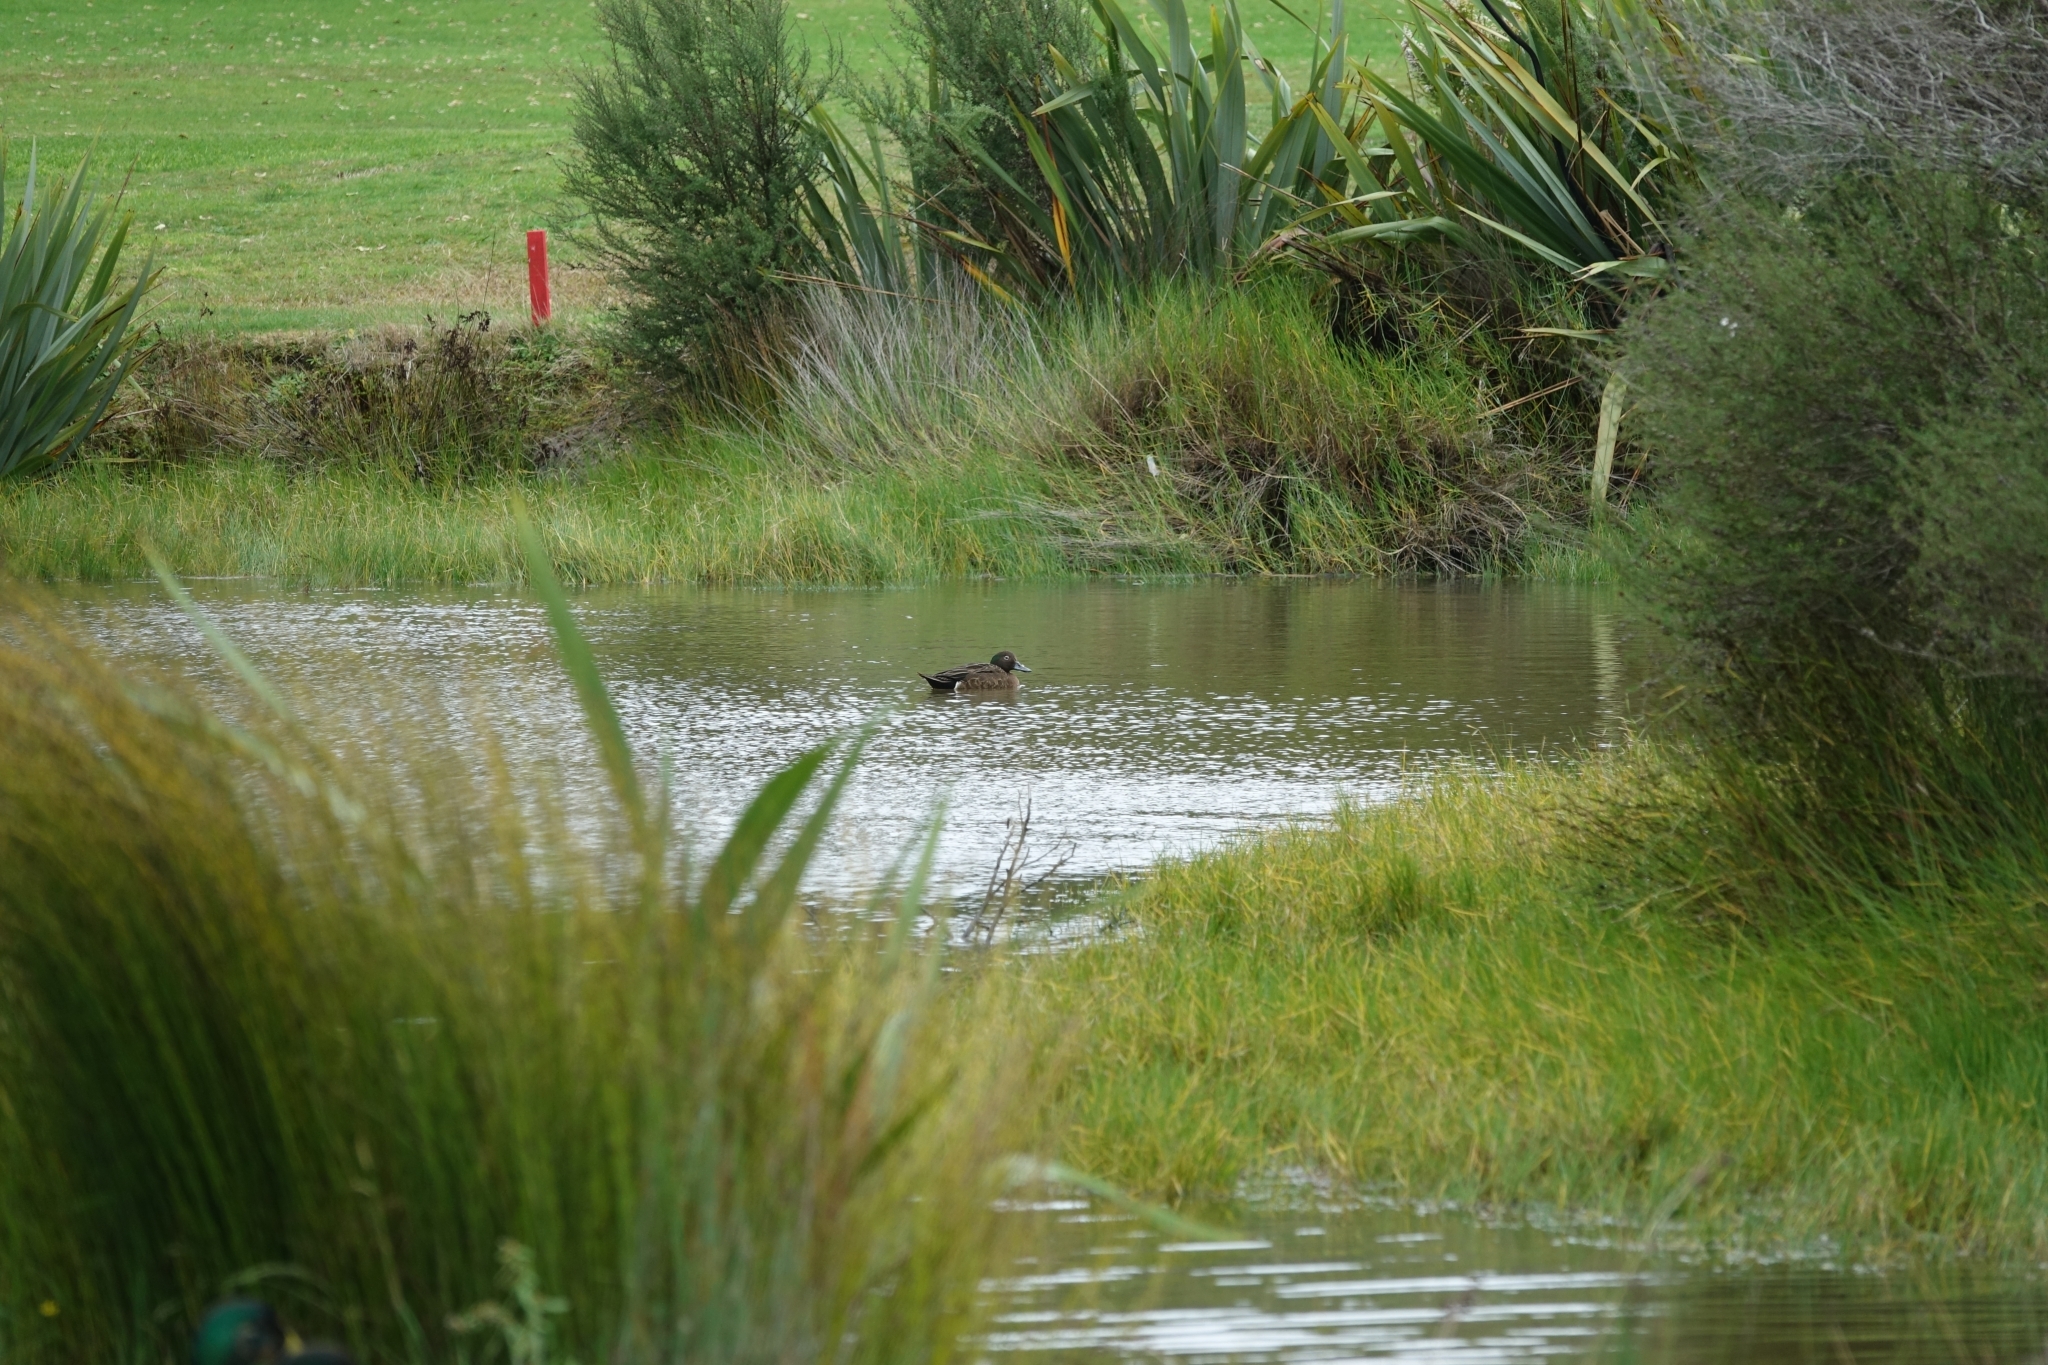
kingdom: Animalia
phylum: Chordata
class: Aves
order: Anseriformes
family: Anatidae
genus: Anas
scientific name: Anas chlorotis
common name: Brown teal
